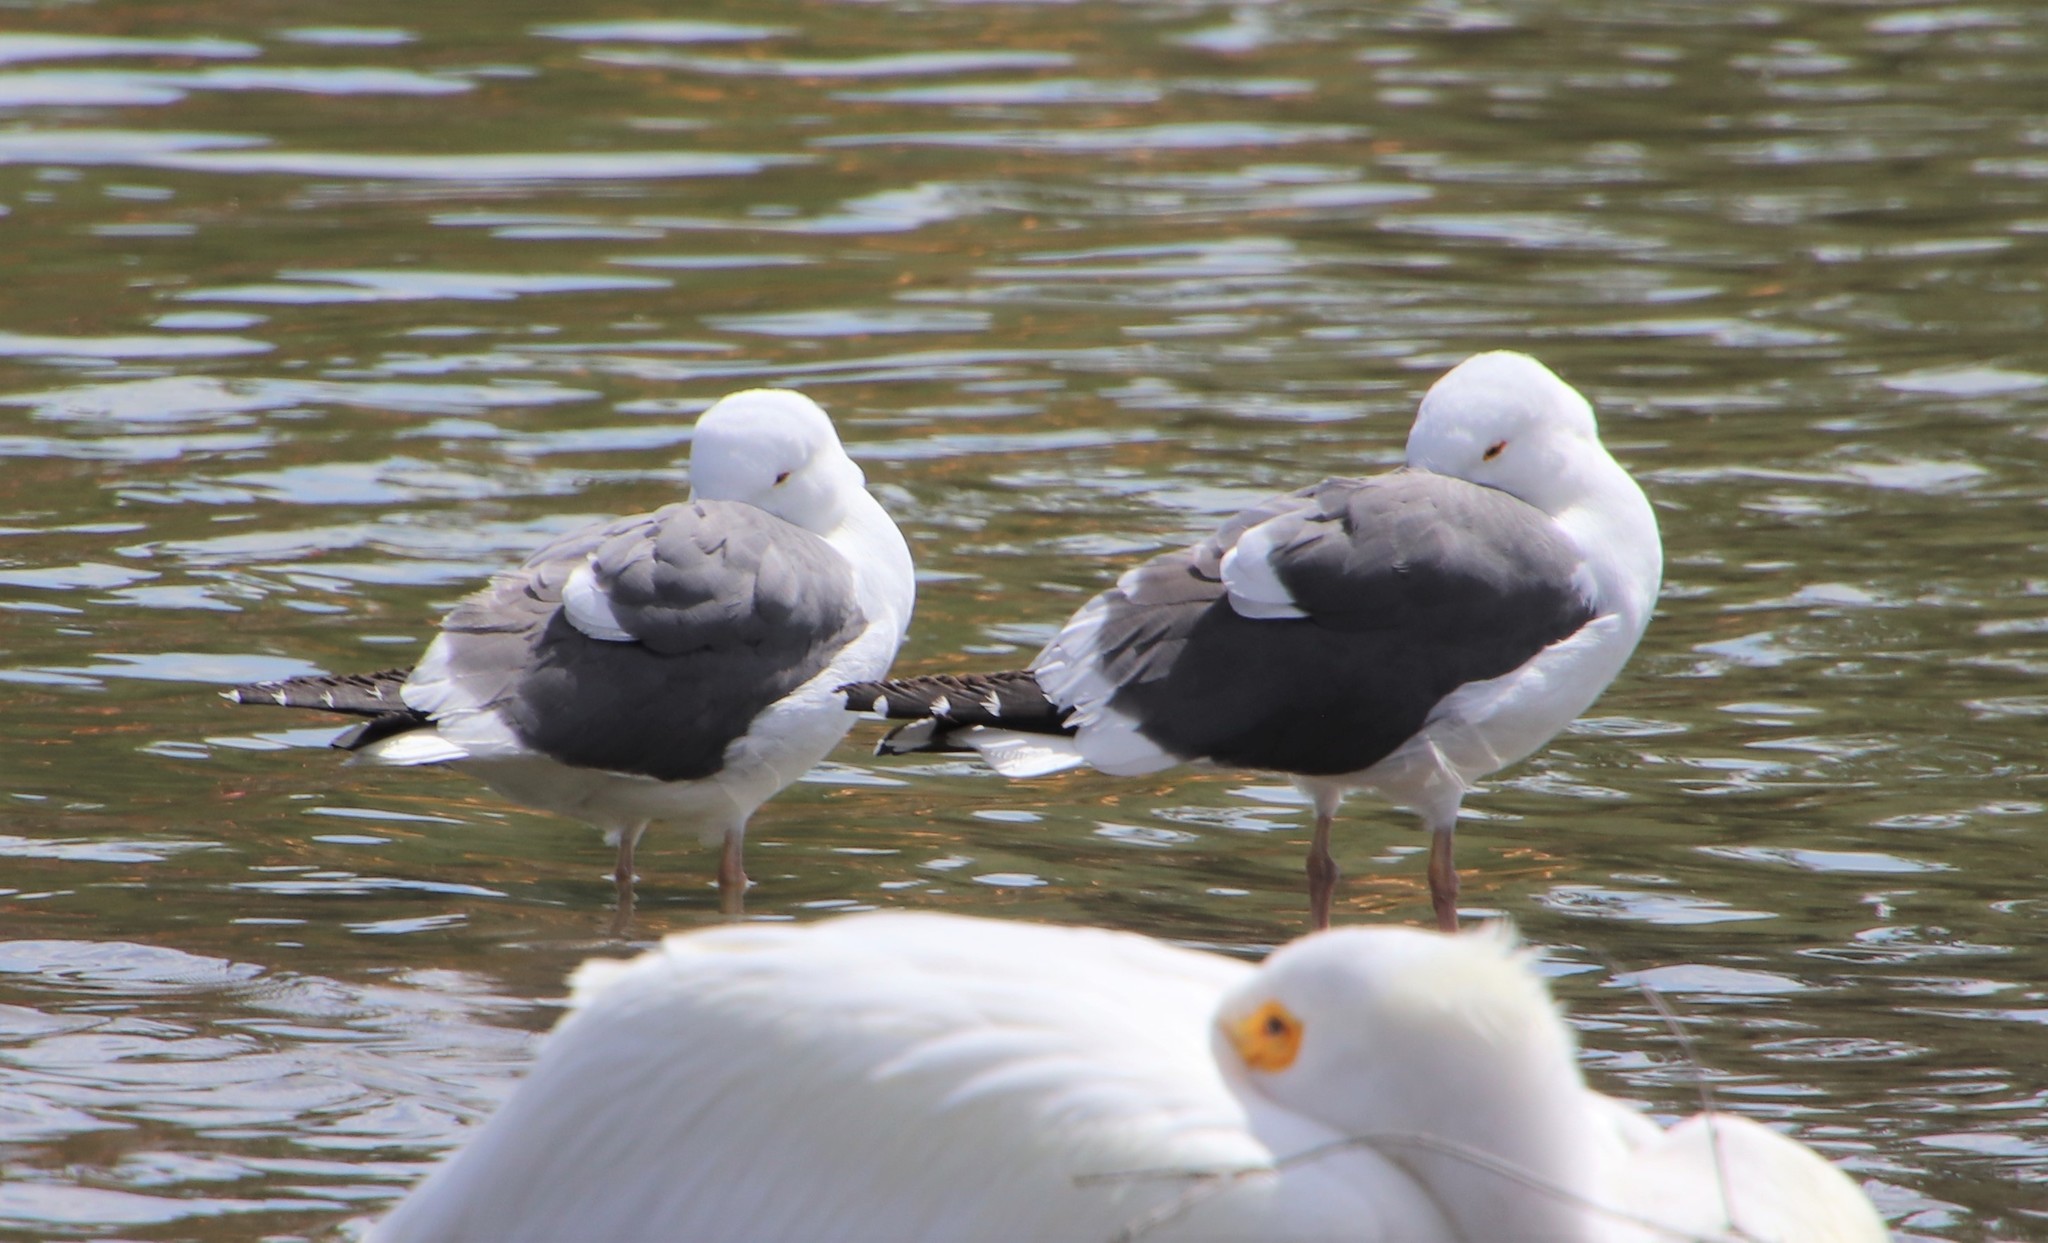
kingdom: Animalia
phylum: Chordata
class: Aves
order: Charadriiformes
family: Laridae
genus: Larus
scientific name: Larus occidentalis
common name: Western gull
